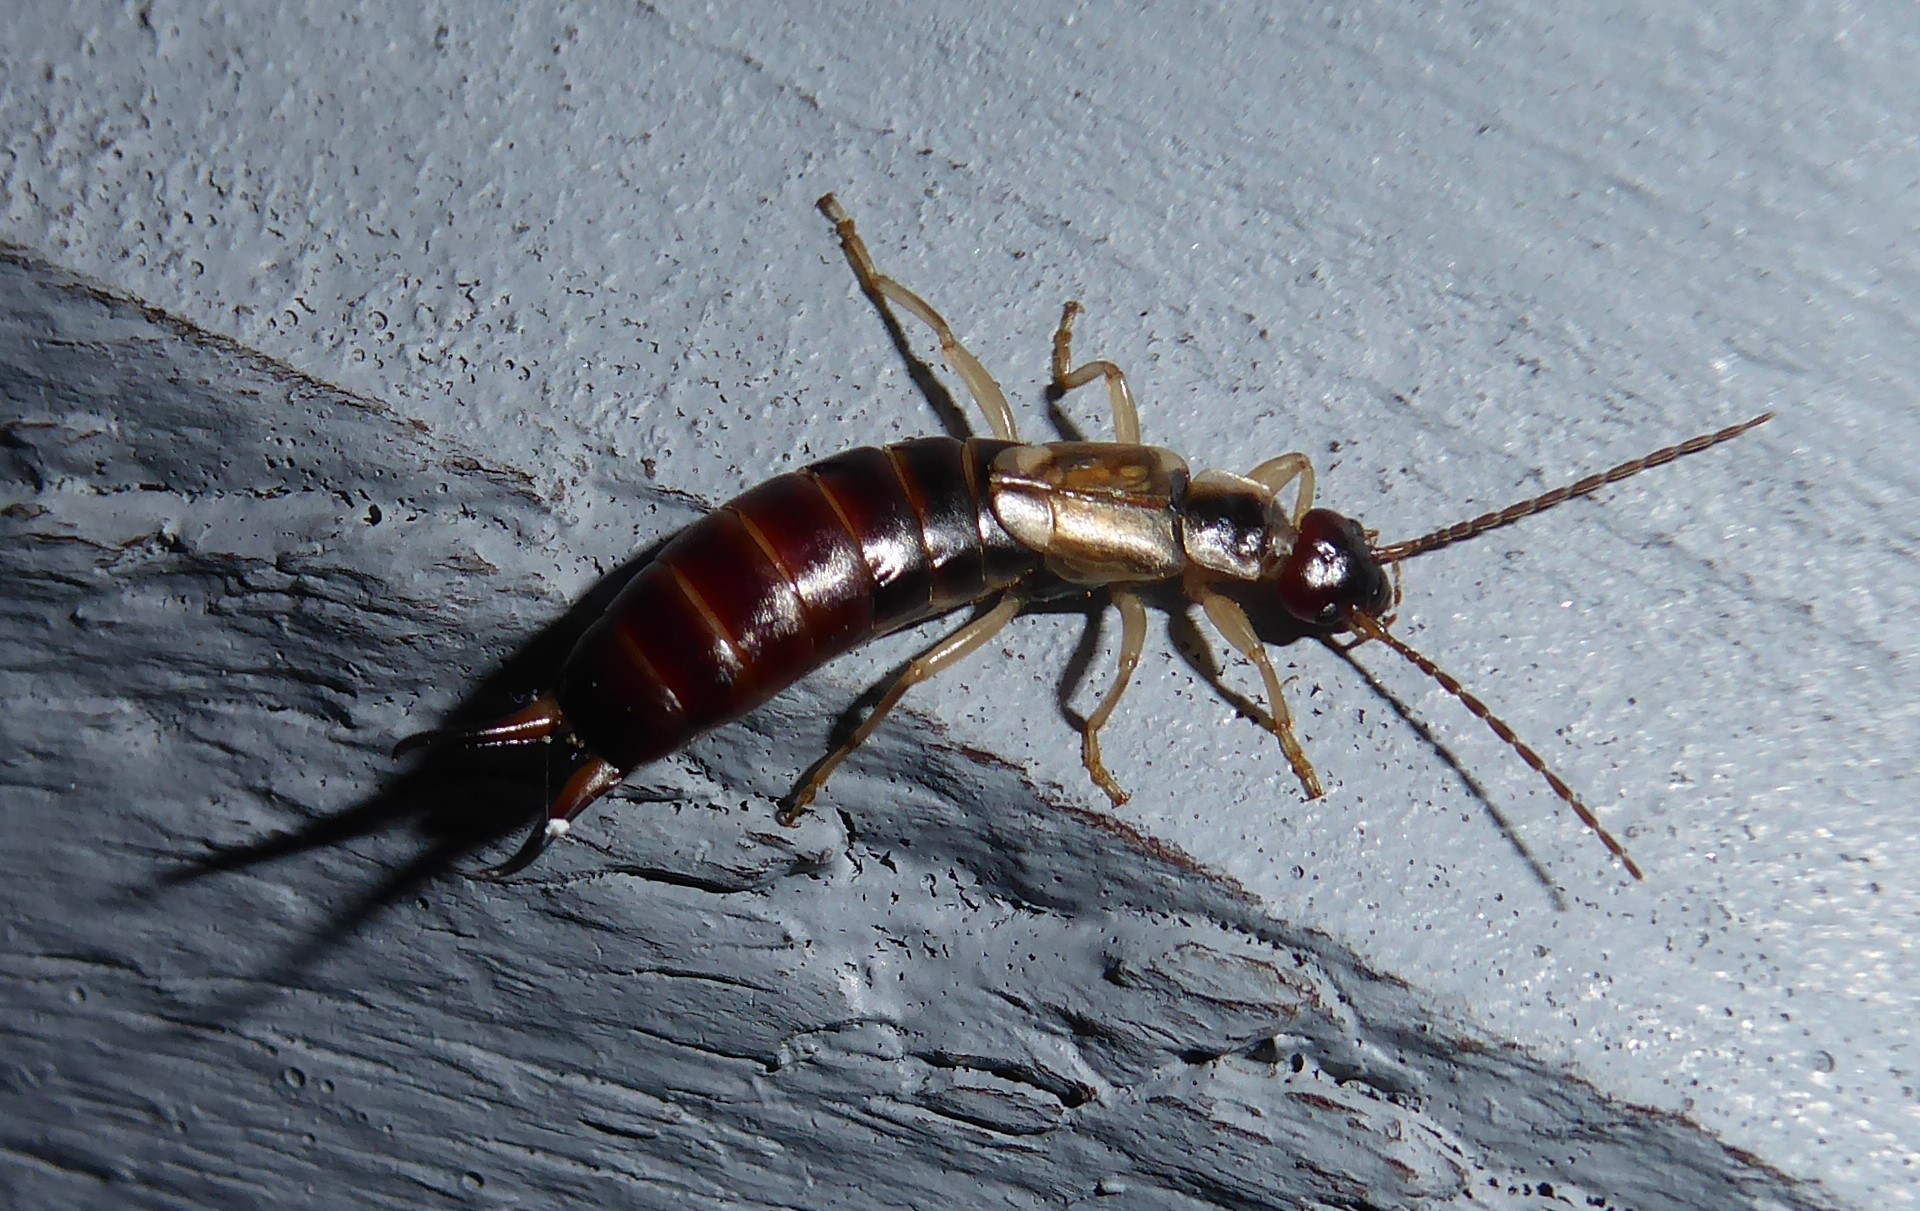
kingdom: Animalia
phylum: Arthropoda
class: Insecta
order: Dermaptera
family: Forficulidae
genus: Forficula
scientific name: Forficula
